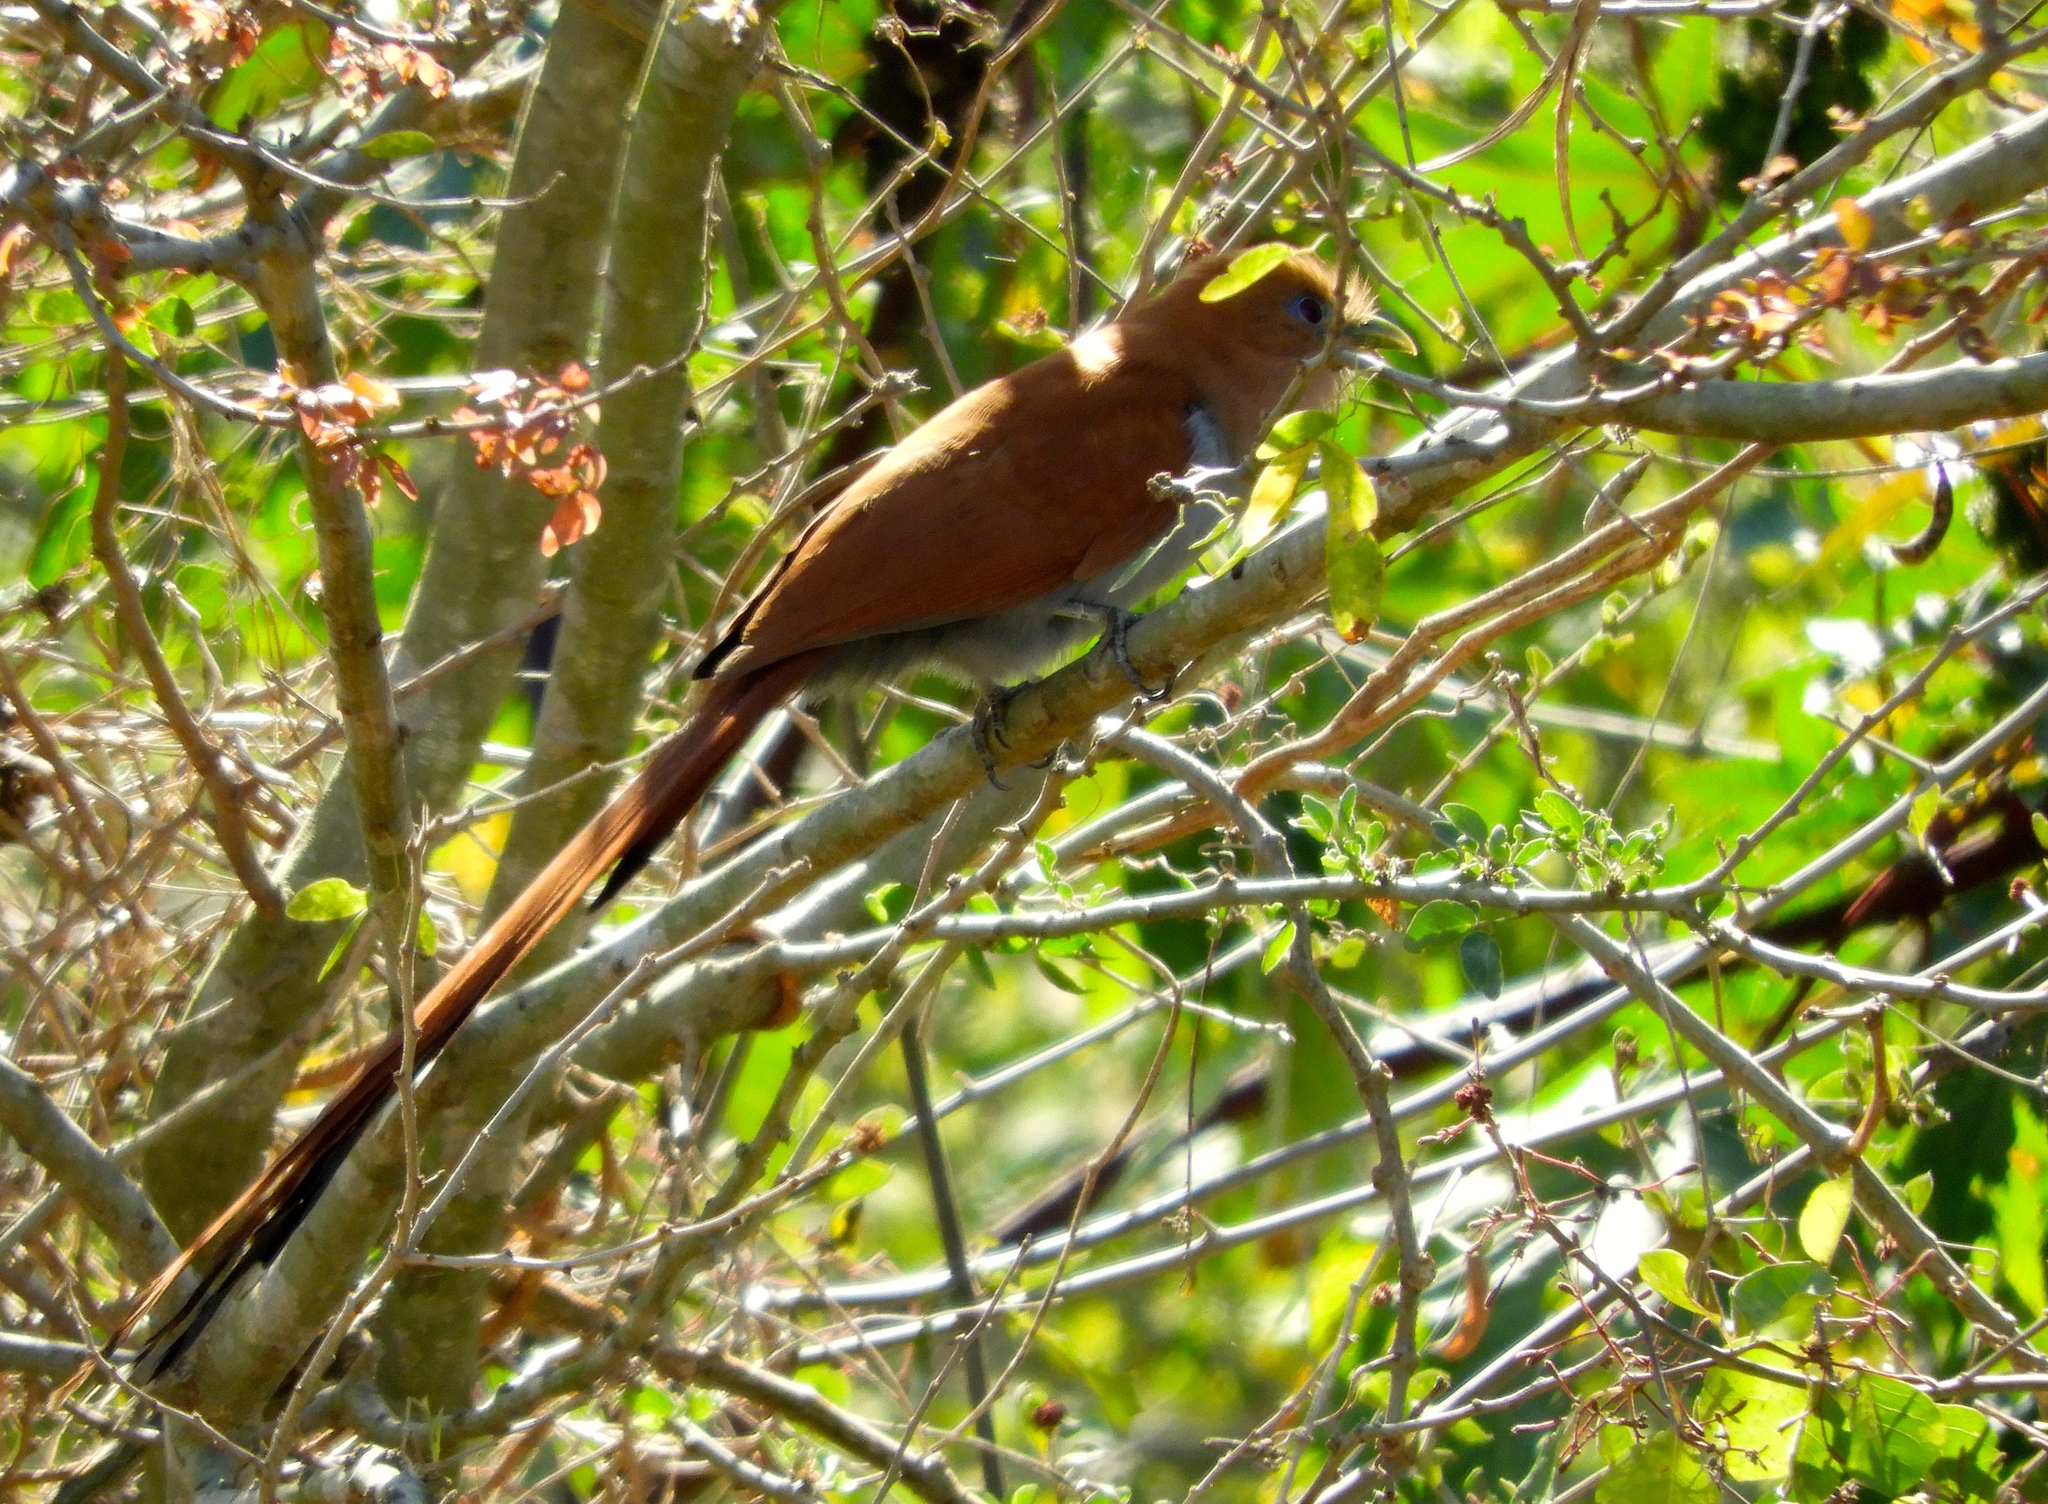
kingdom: Animalia
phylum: Chordata
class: Aves
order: Cuculiformes
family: Cuculidae
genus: Piaya
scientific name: Piaya cayana
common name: Squirrel cuckoo
